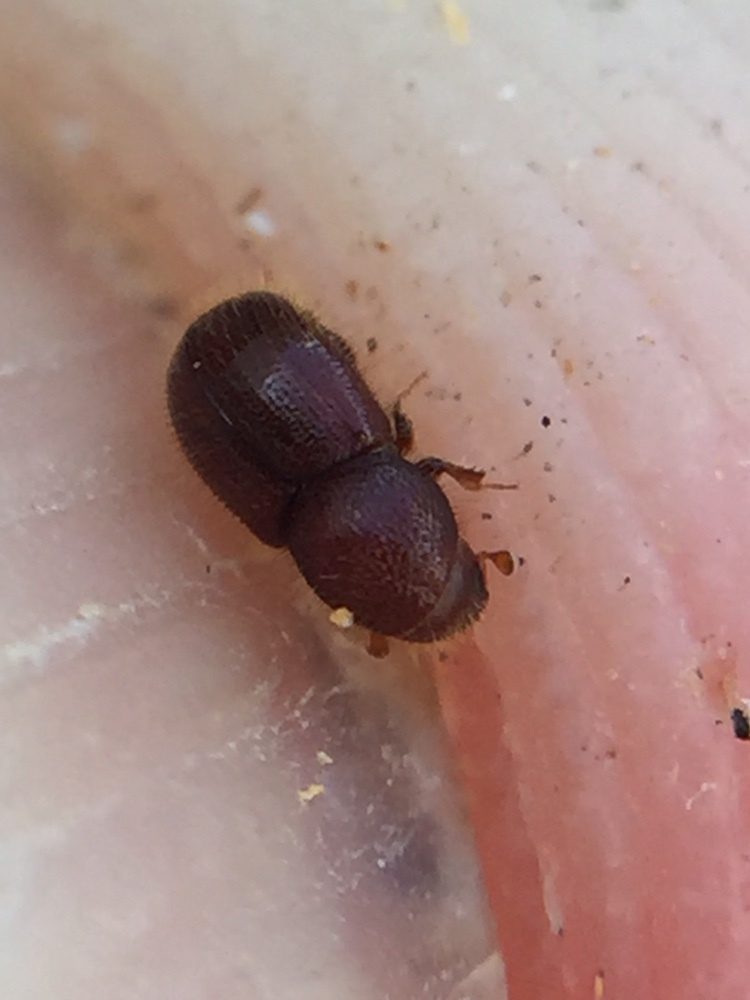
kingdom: Animalia
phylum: Arthropoda
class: Insecta
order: Coleoptera
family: Curculionidae
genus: Coccotrypes
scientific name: Coccotrypes dactyliperda
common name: Bark beetle
